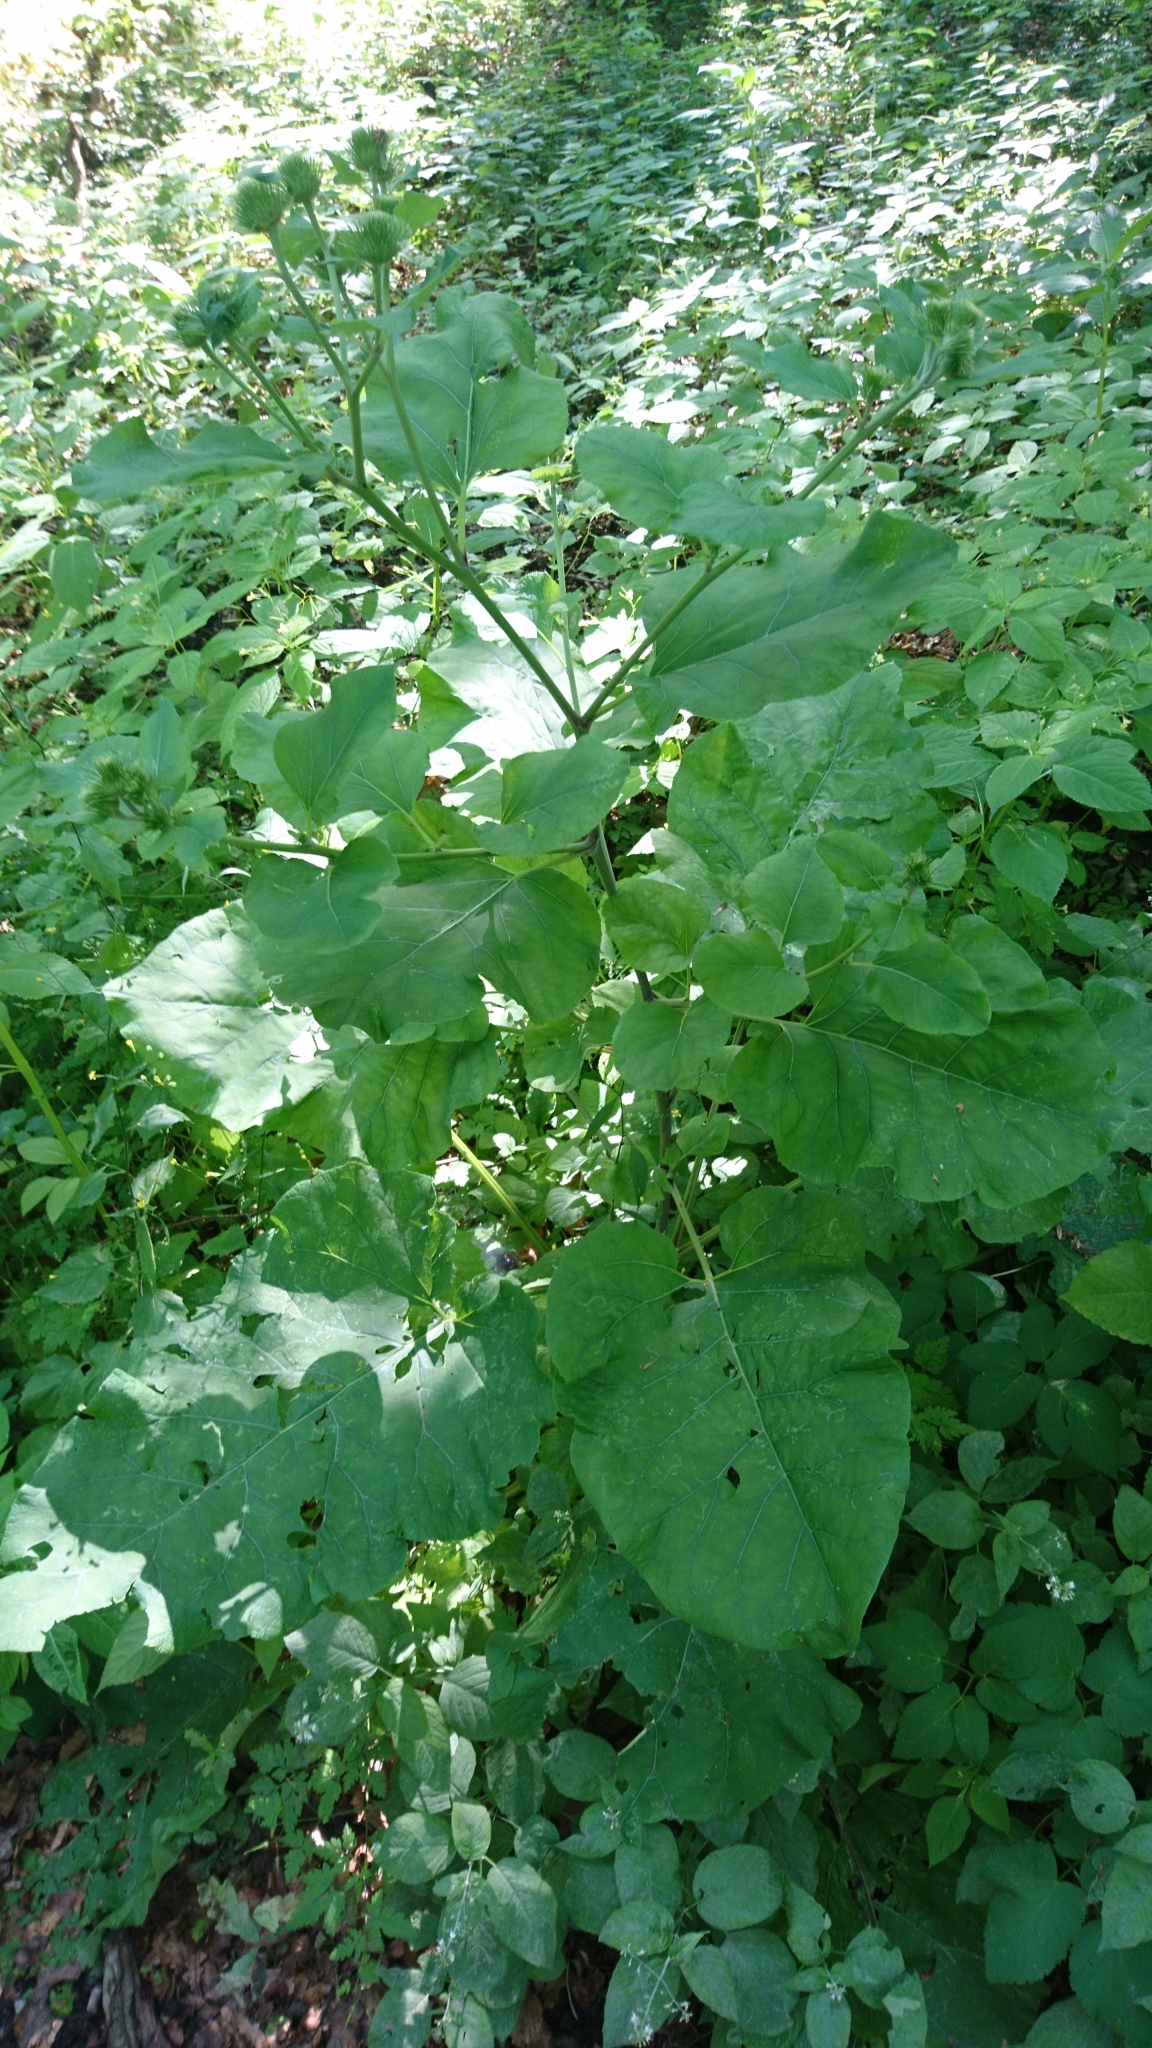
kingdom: Plantae
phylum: Tracheophyta
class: Magnoliopsida
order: Asterales
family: Asteraceae
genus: Arctium
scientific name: Arctium lappa
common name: Greater burdock
